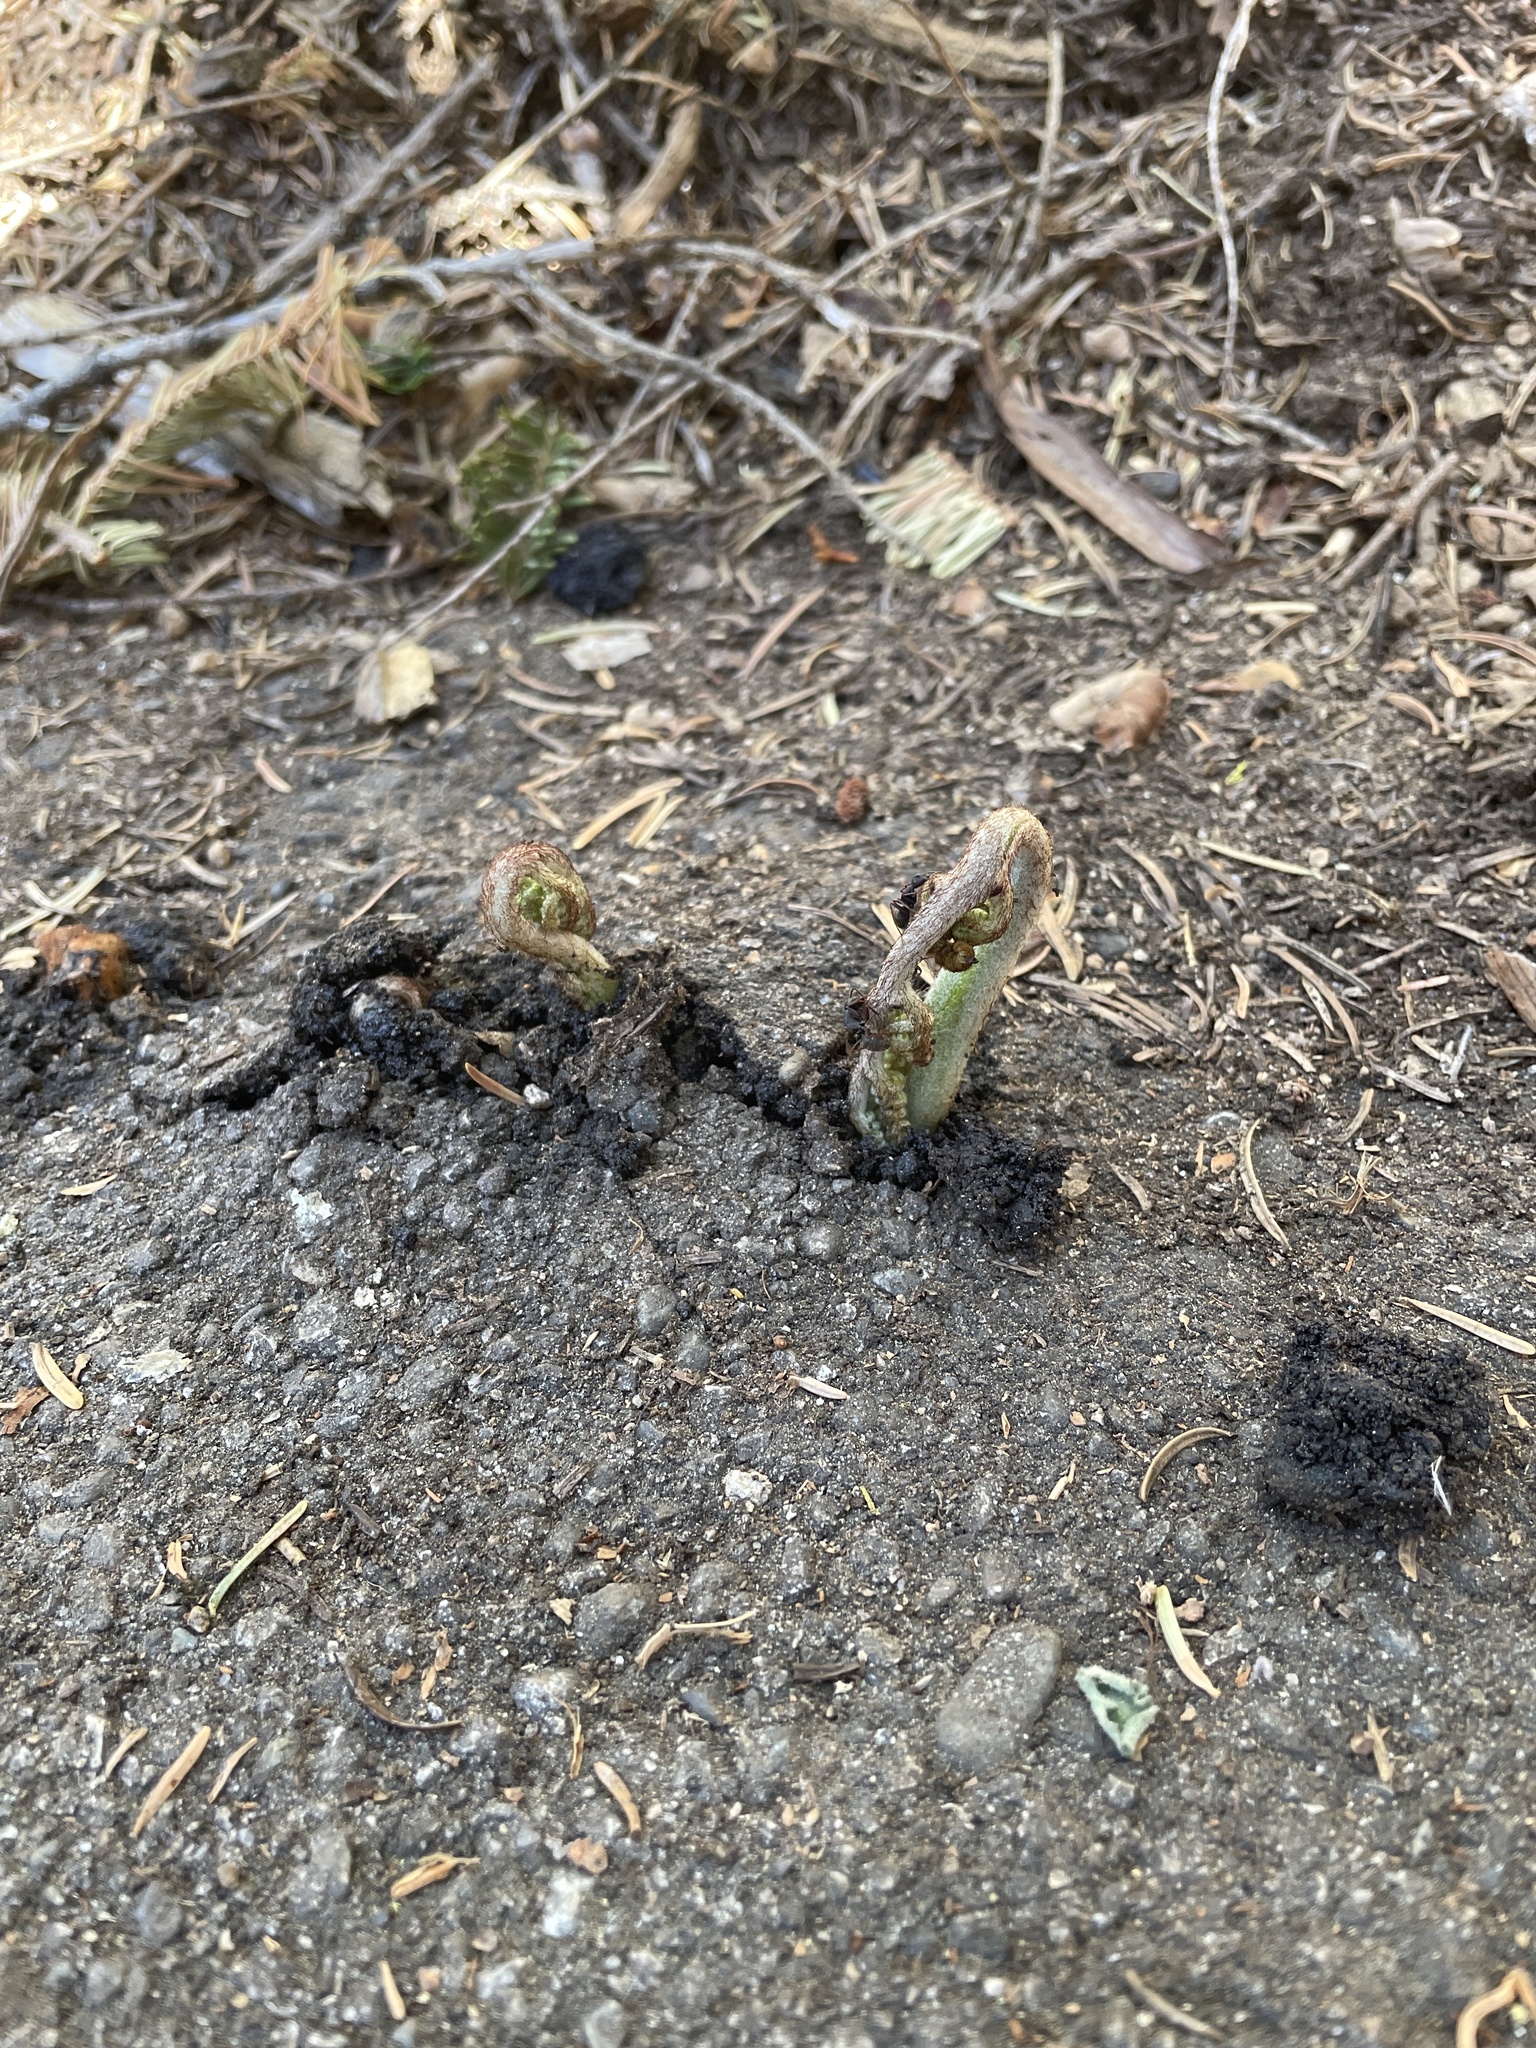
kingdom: Plantae
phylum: Tracheophyta
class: Polypodiopsida
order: Polypodiales
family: Dennstaedtiaceae
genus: Pteridium
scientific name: Pteridium aquilinum
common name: Bracken
